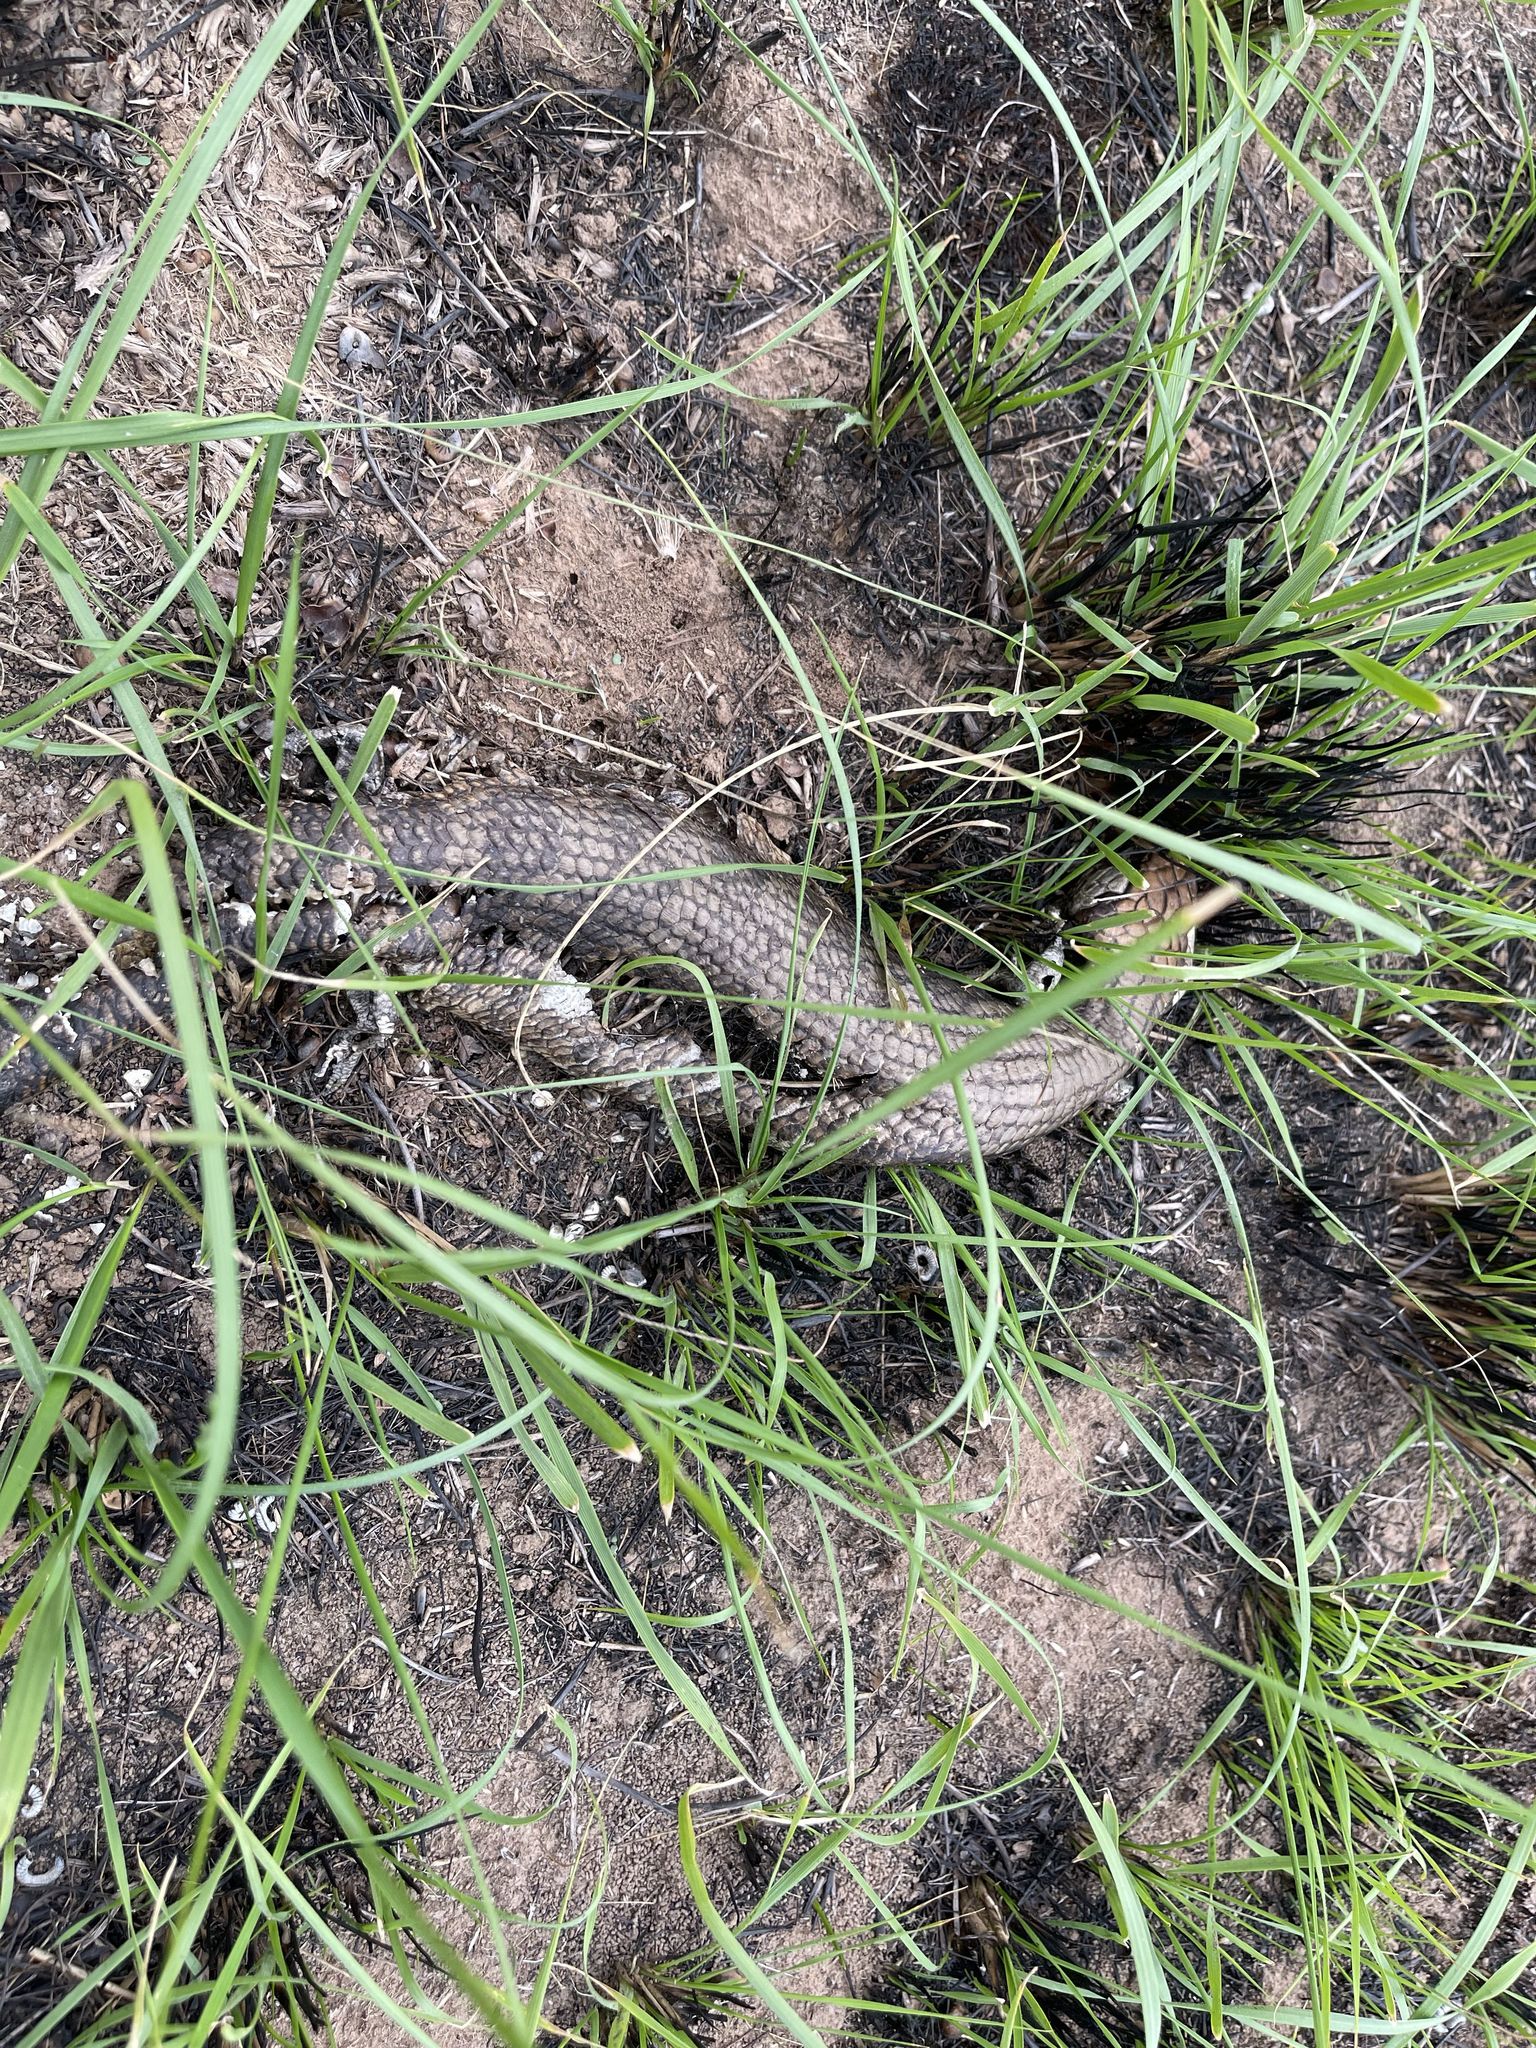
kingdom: Animalia
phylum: Chordata
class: Squamata
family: Scincidae
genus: Tiliqua
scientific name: Tiliqua scincoides
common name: Common bluetongue
